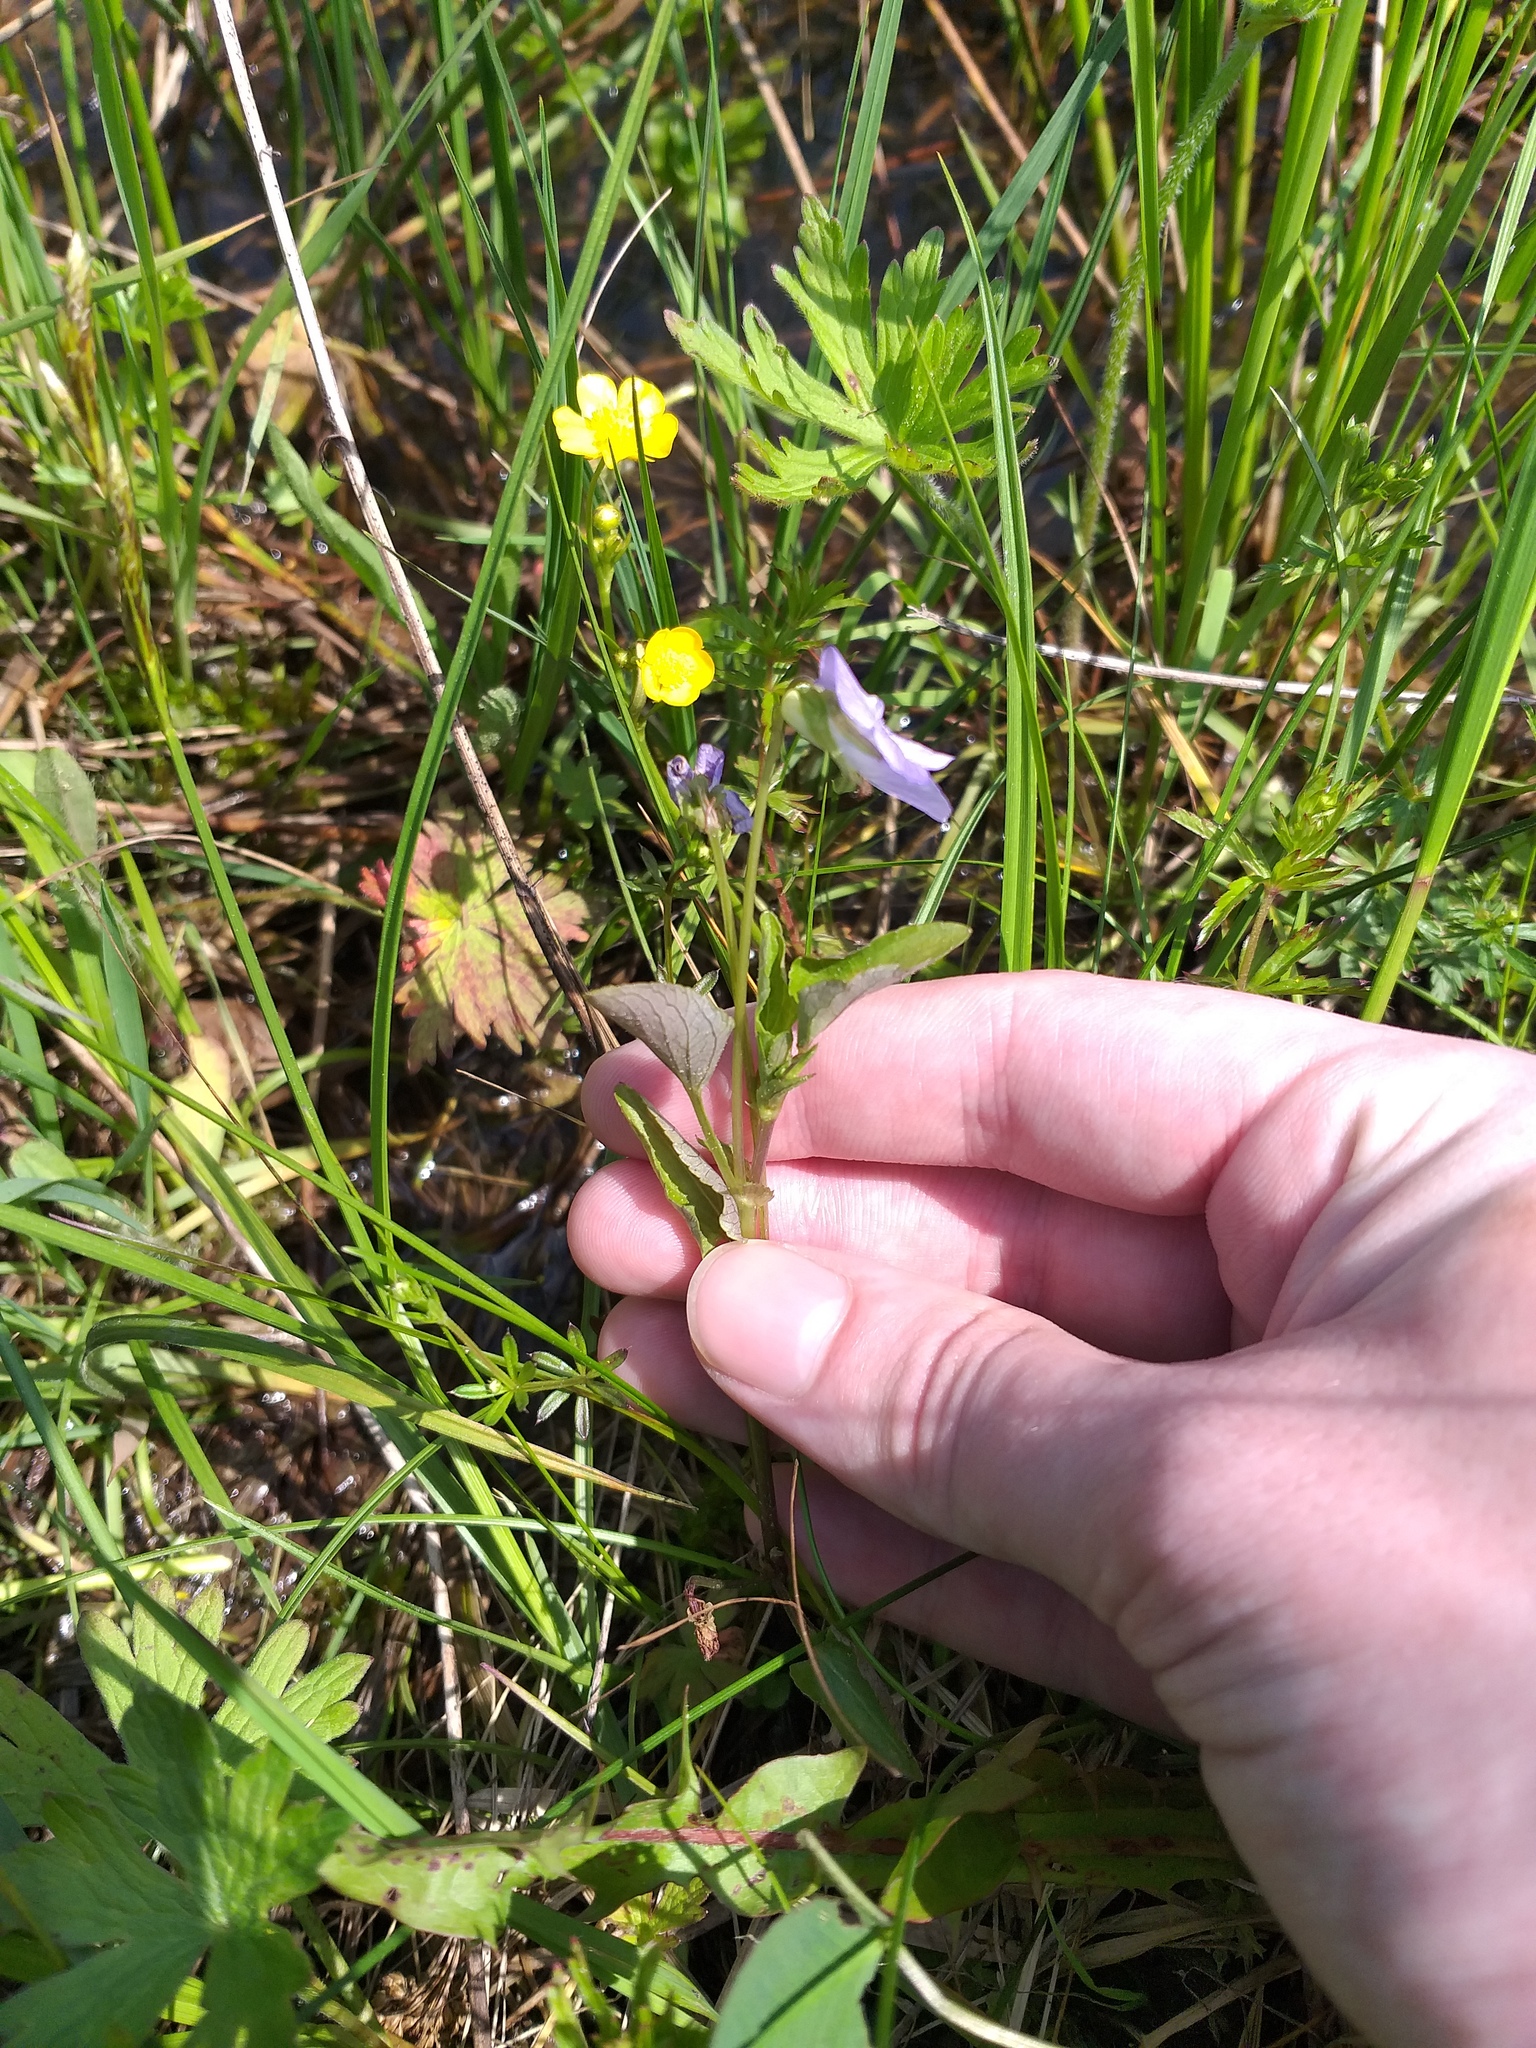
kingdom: Plantae
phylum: Tracheophyta
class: Magnoliopsida
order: Malpighiales
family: Violaceae
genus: Viola
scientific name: Viola canina
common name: Heath dog-violet
